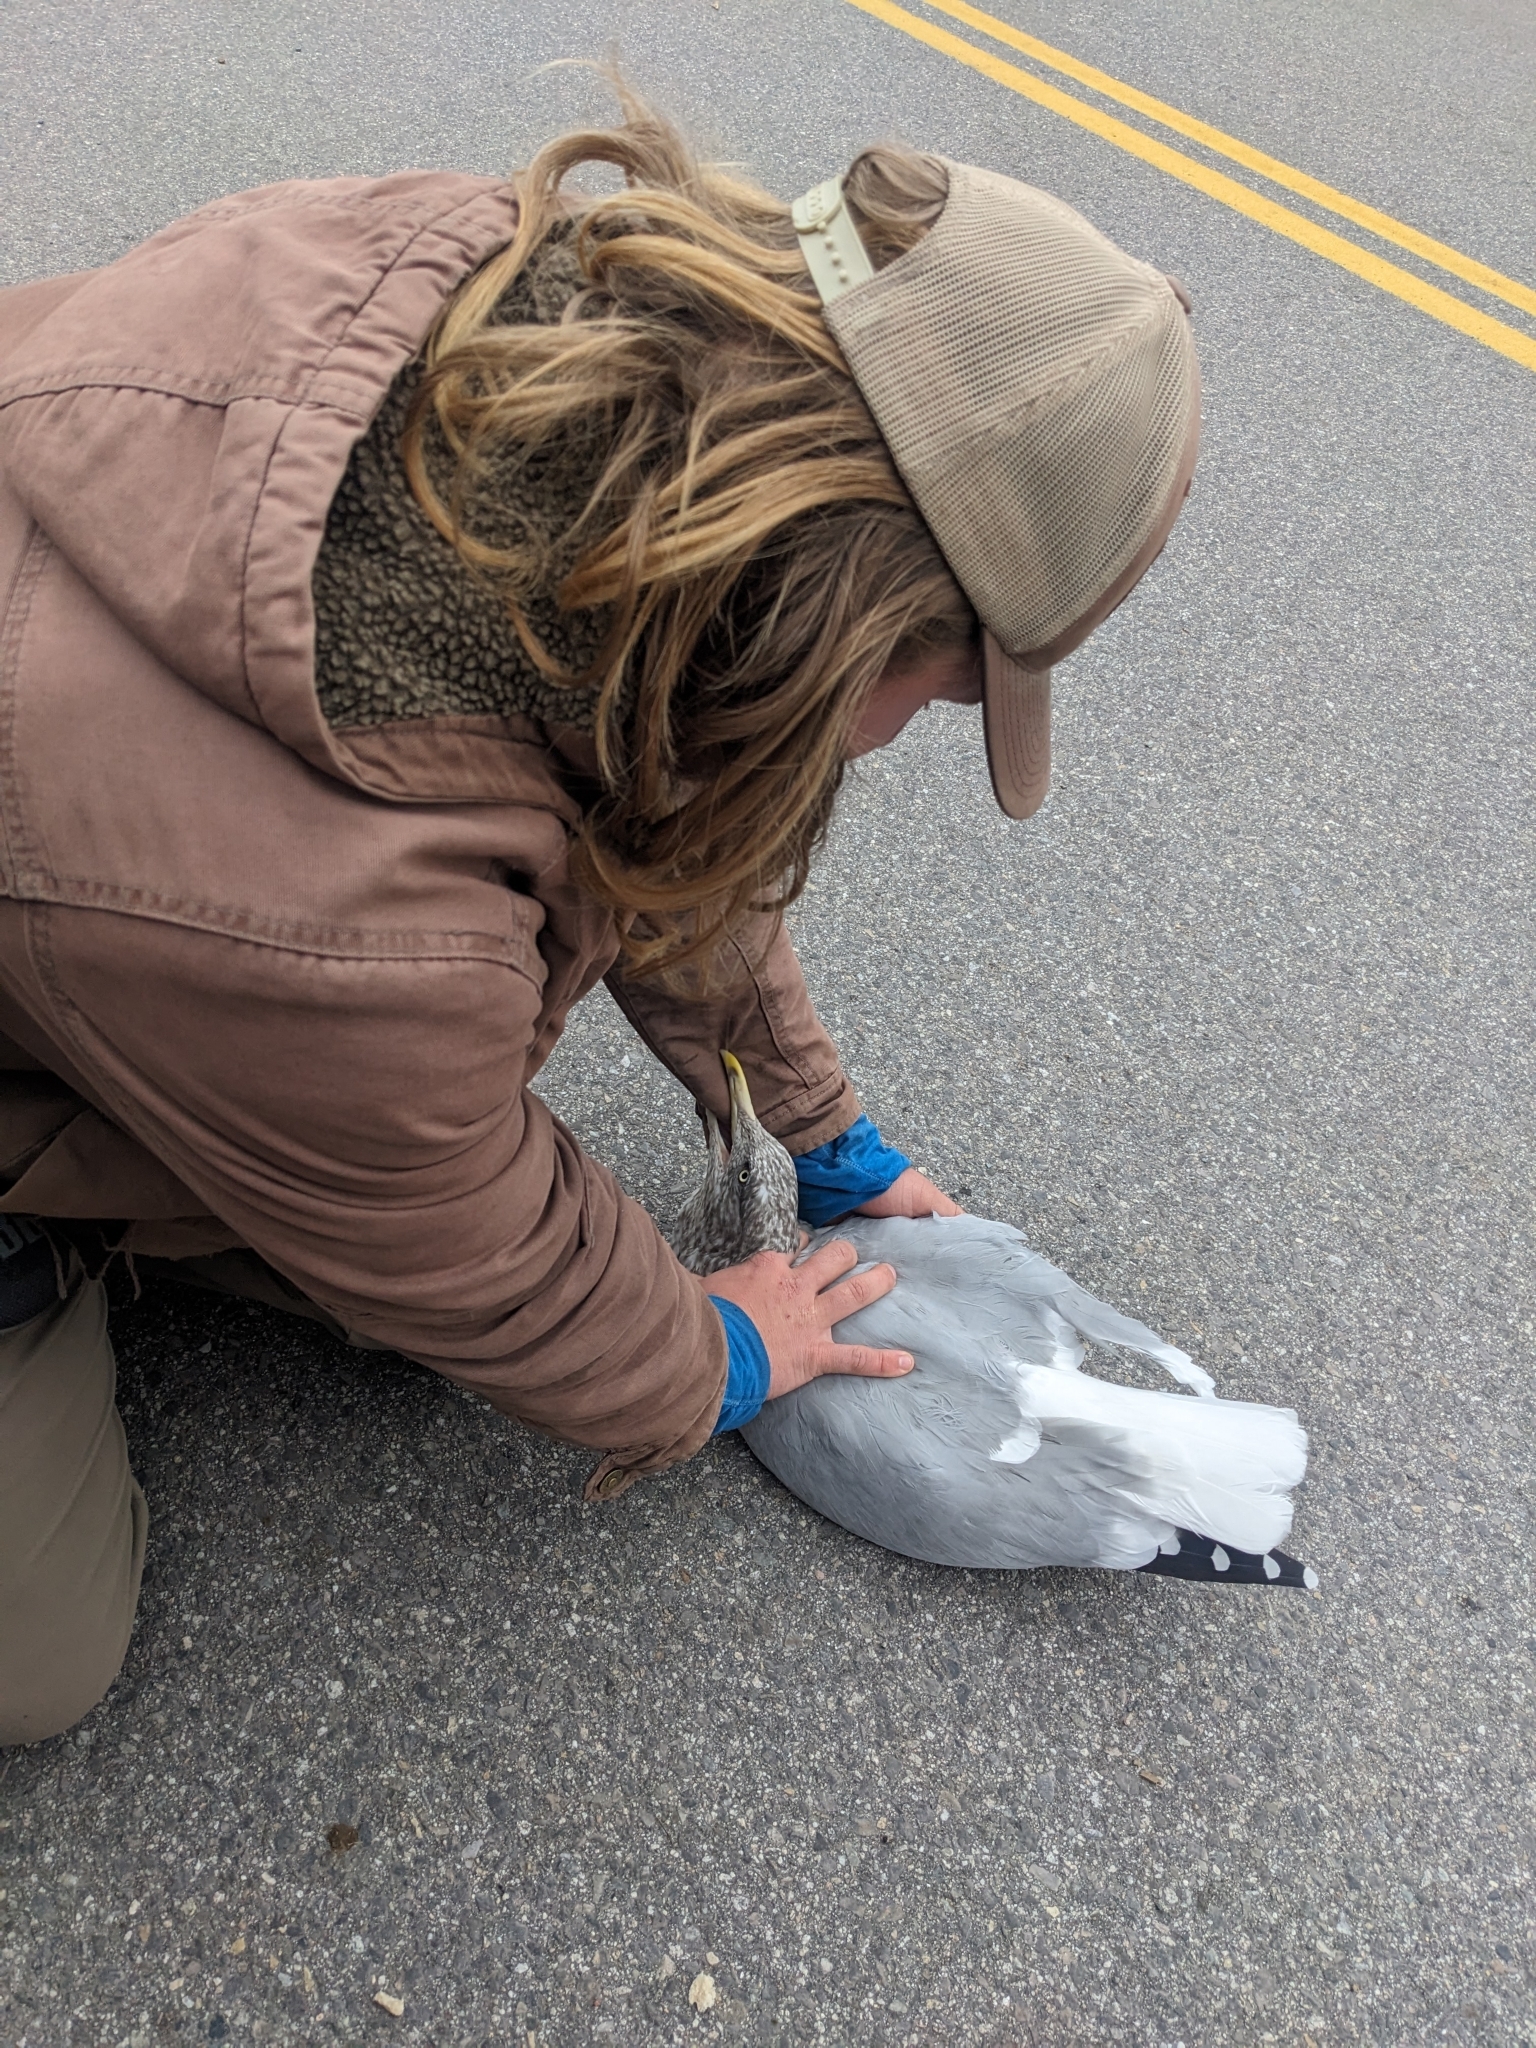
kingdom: Animalia
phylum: Chordata
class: Aves
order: Charadriiformes
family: Laridae
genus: Larus
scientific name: Larus argentatus
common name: Herring gull
